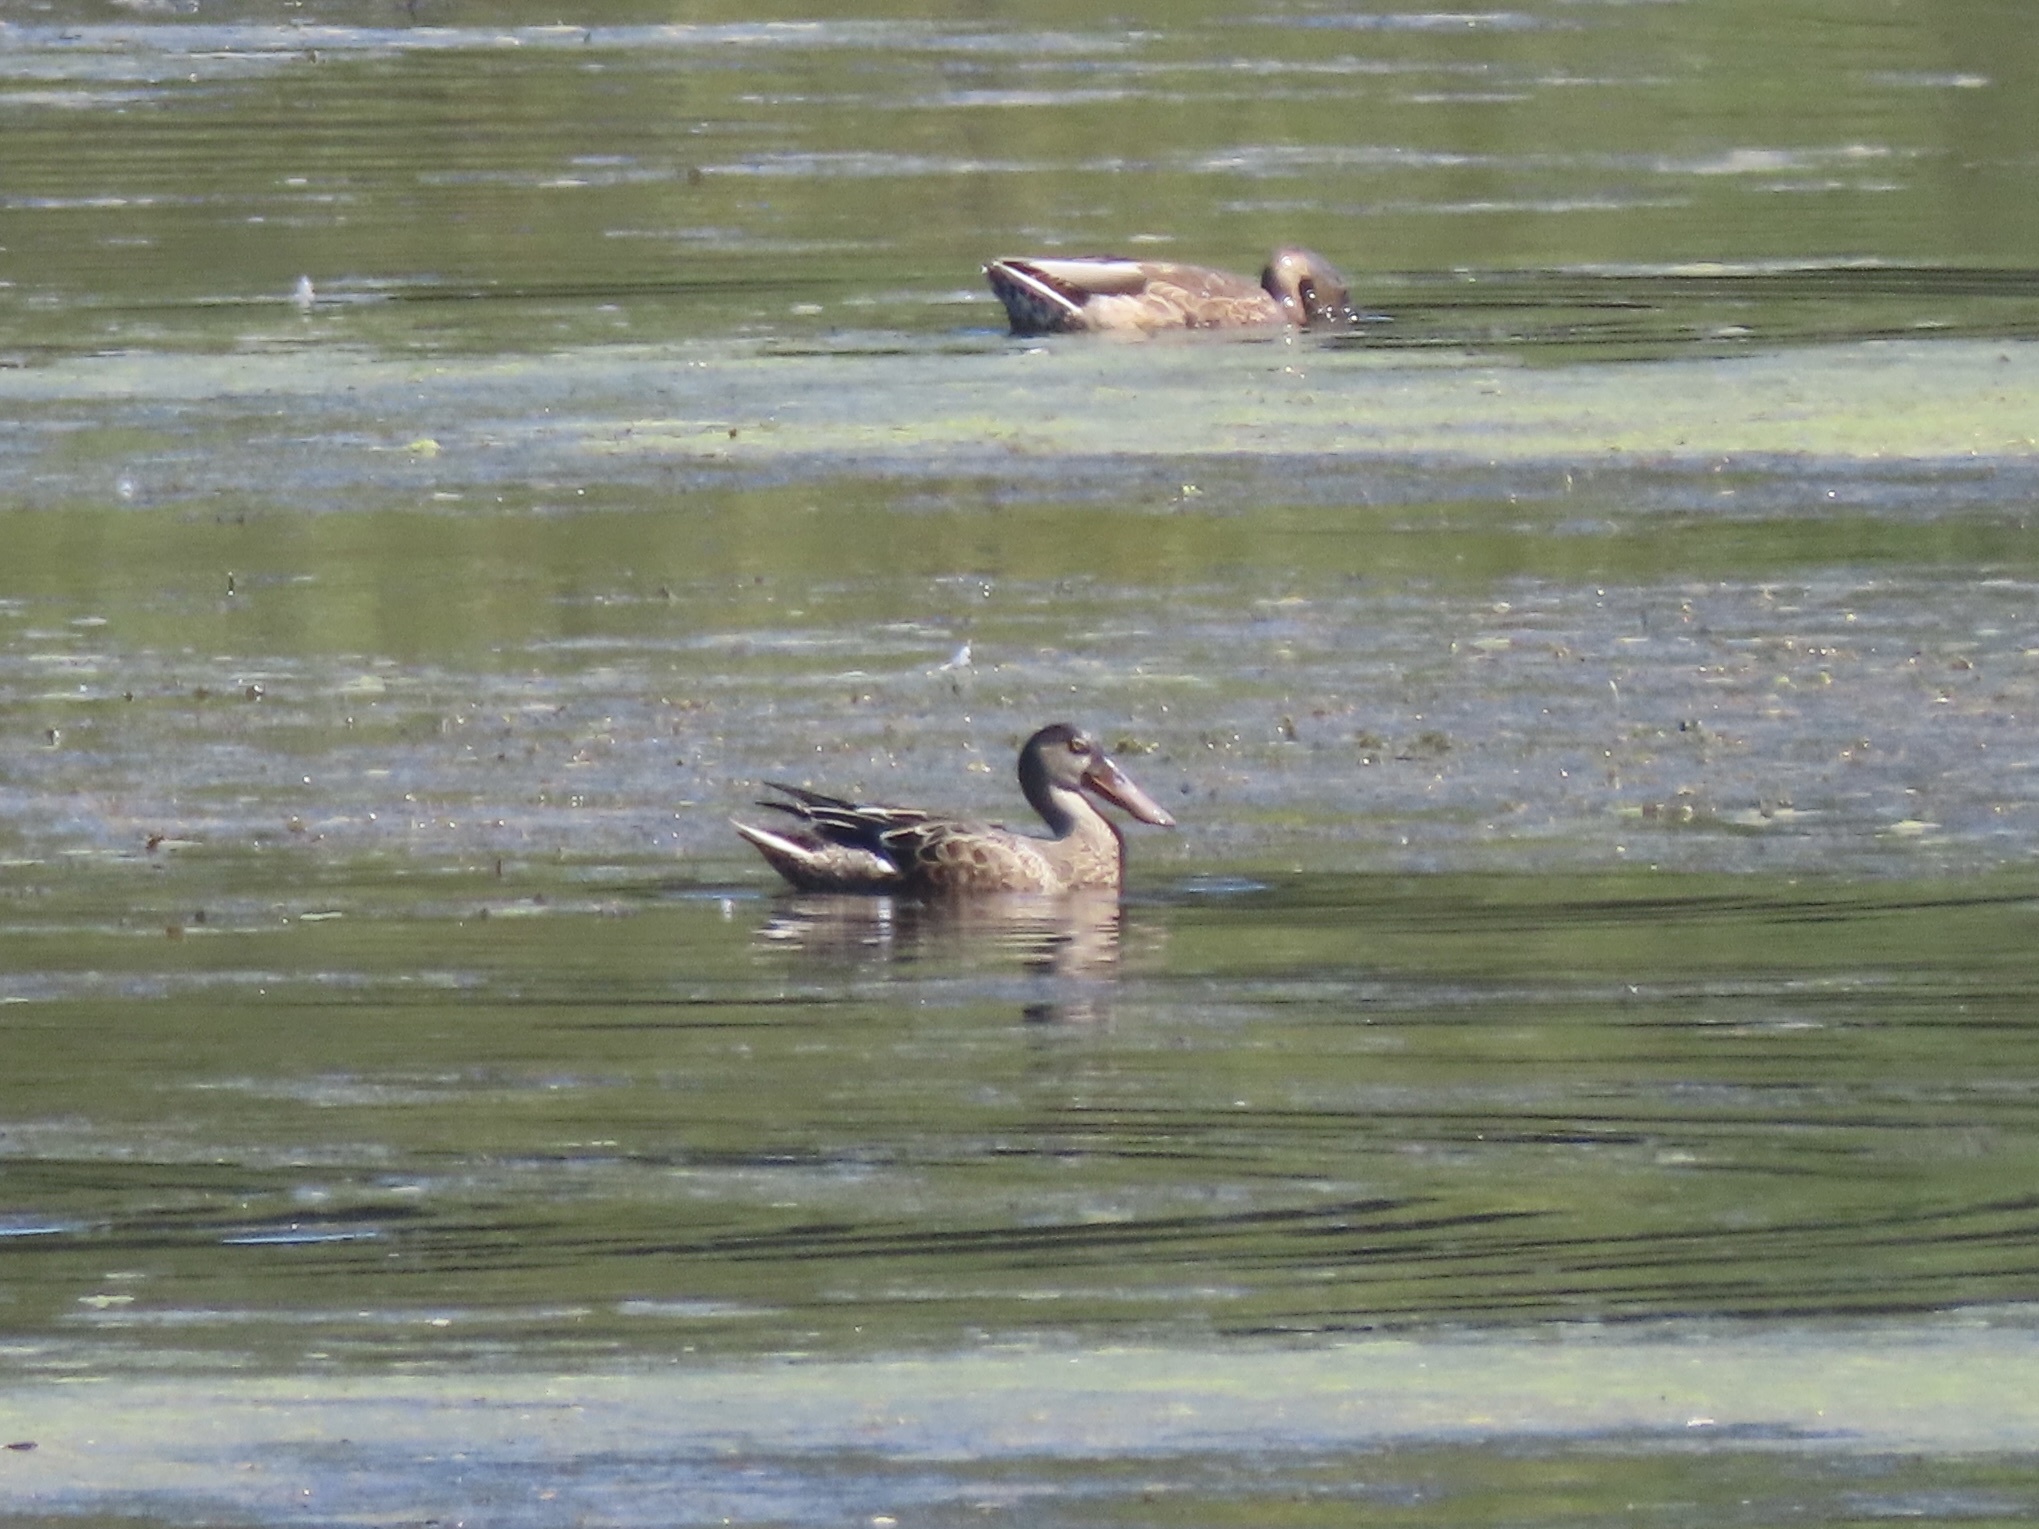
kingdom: Animalia
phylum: Chordata
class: Aves
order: Anseriformes
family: Anatidae
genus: Spatula
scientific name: Spatula clypeata
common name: Northern shoveler
